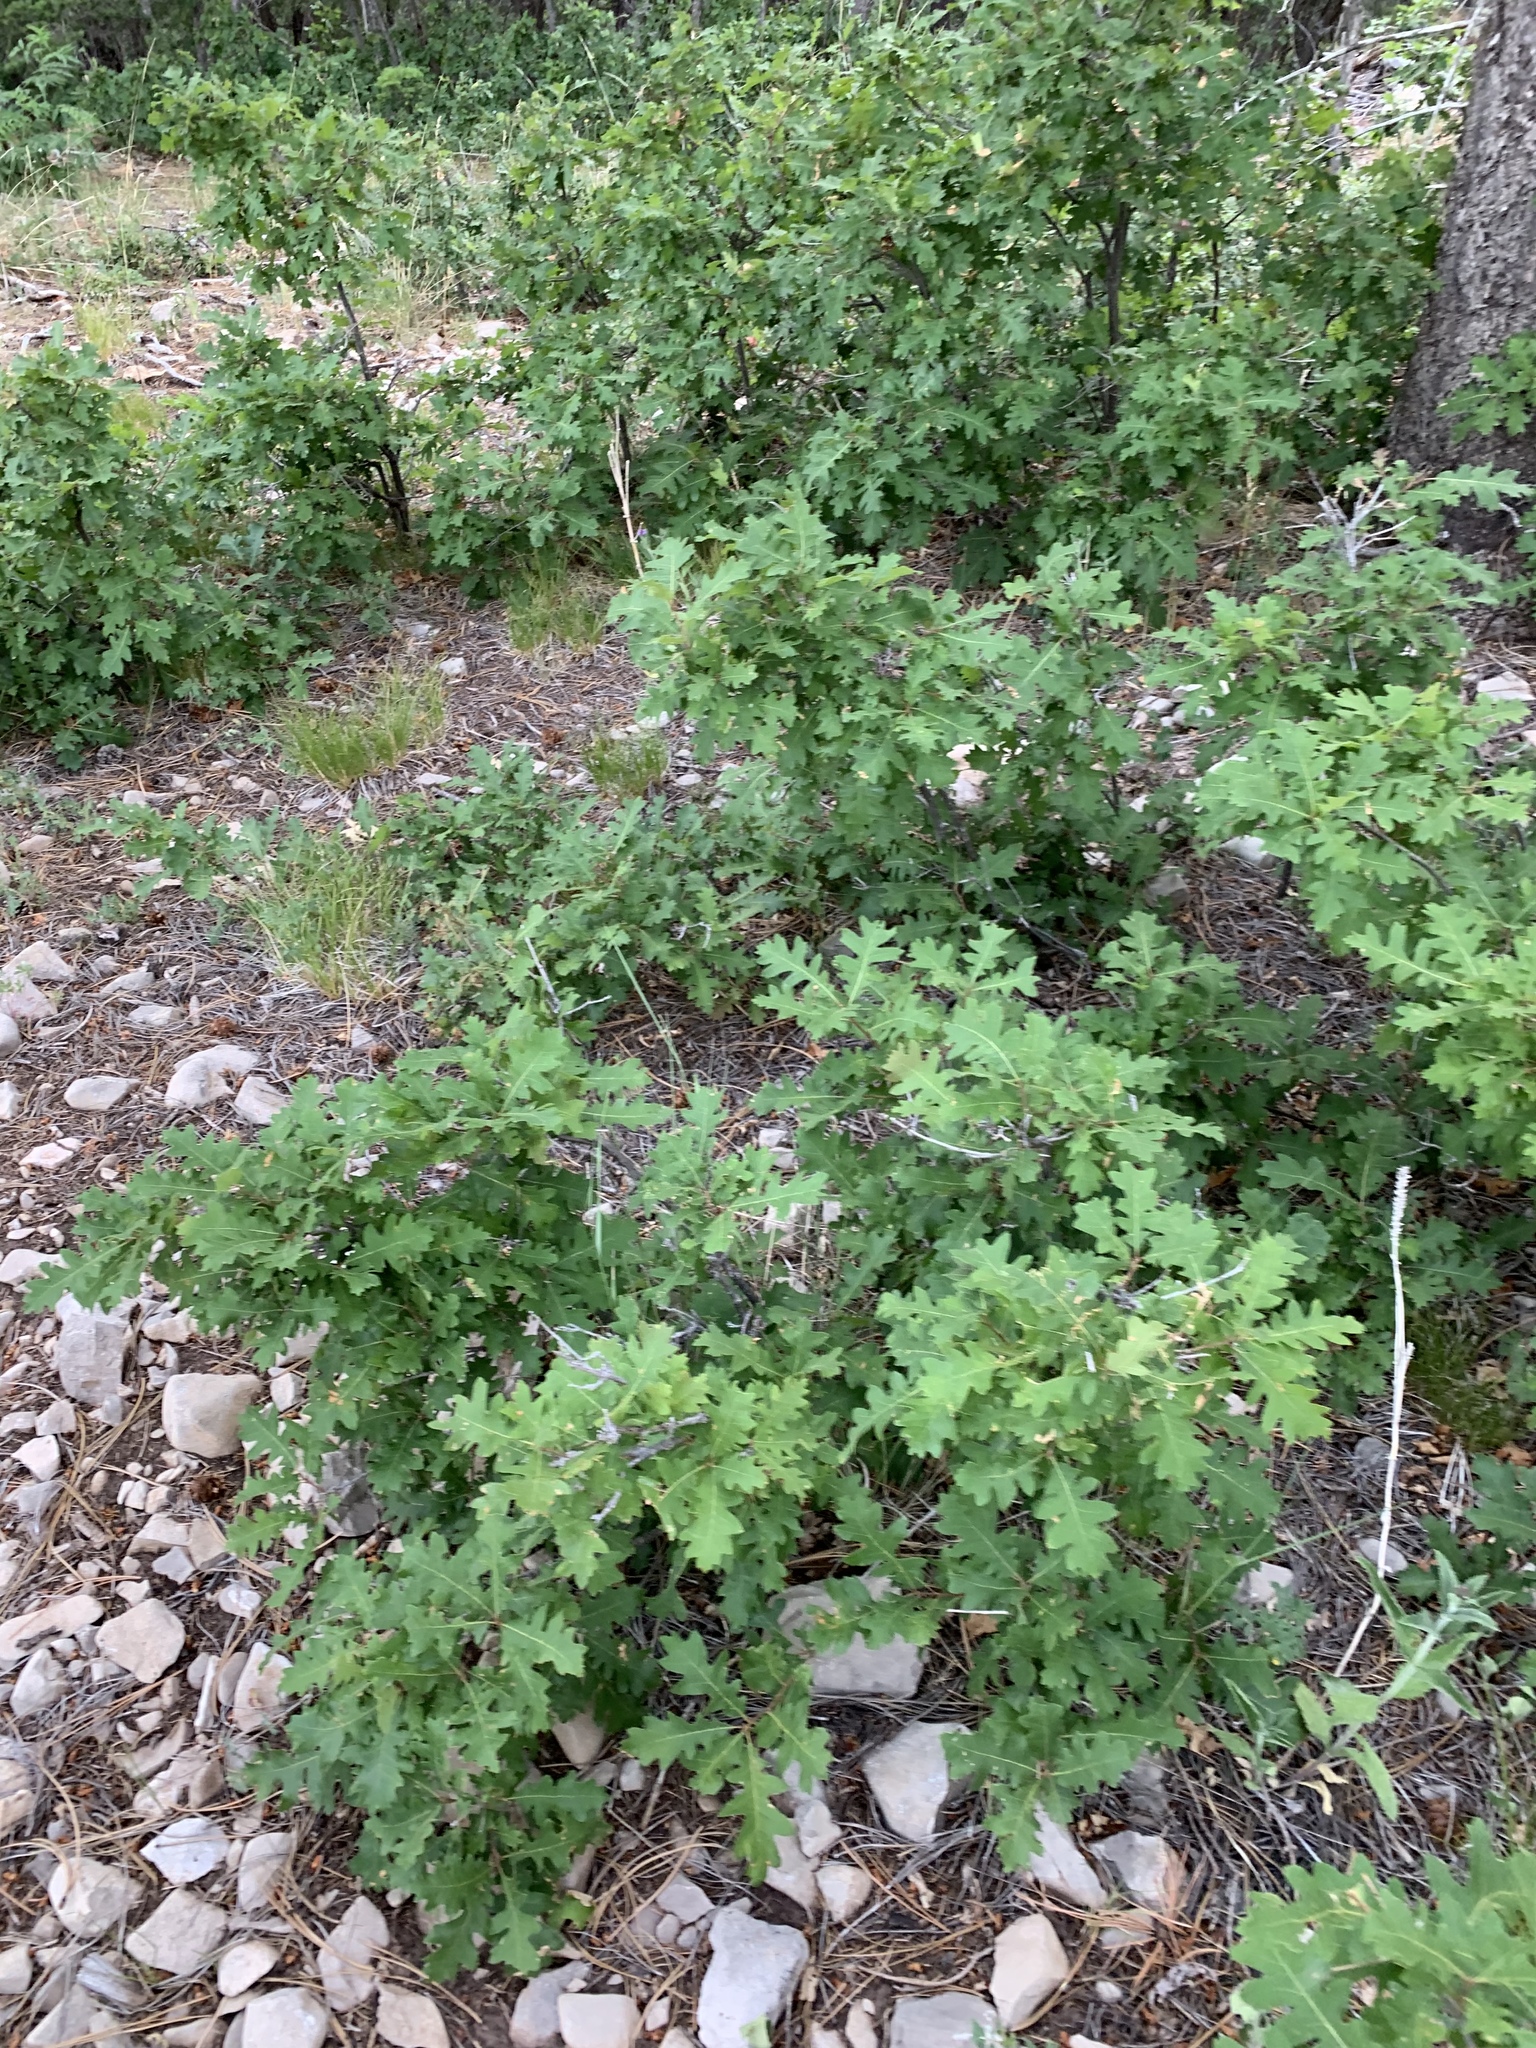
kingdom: Plantae
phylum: Tracheophyta
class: Magnoliopsida
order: Fagales
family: Fagaceae
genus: Quercus
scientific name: Quercus gambelii
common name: Gambel oak
